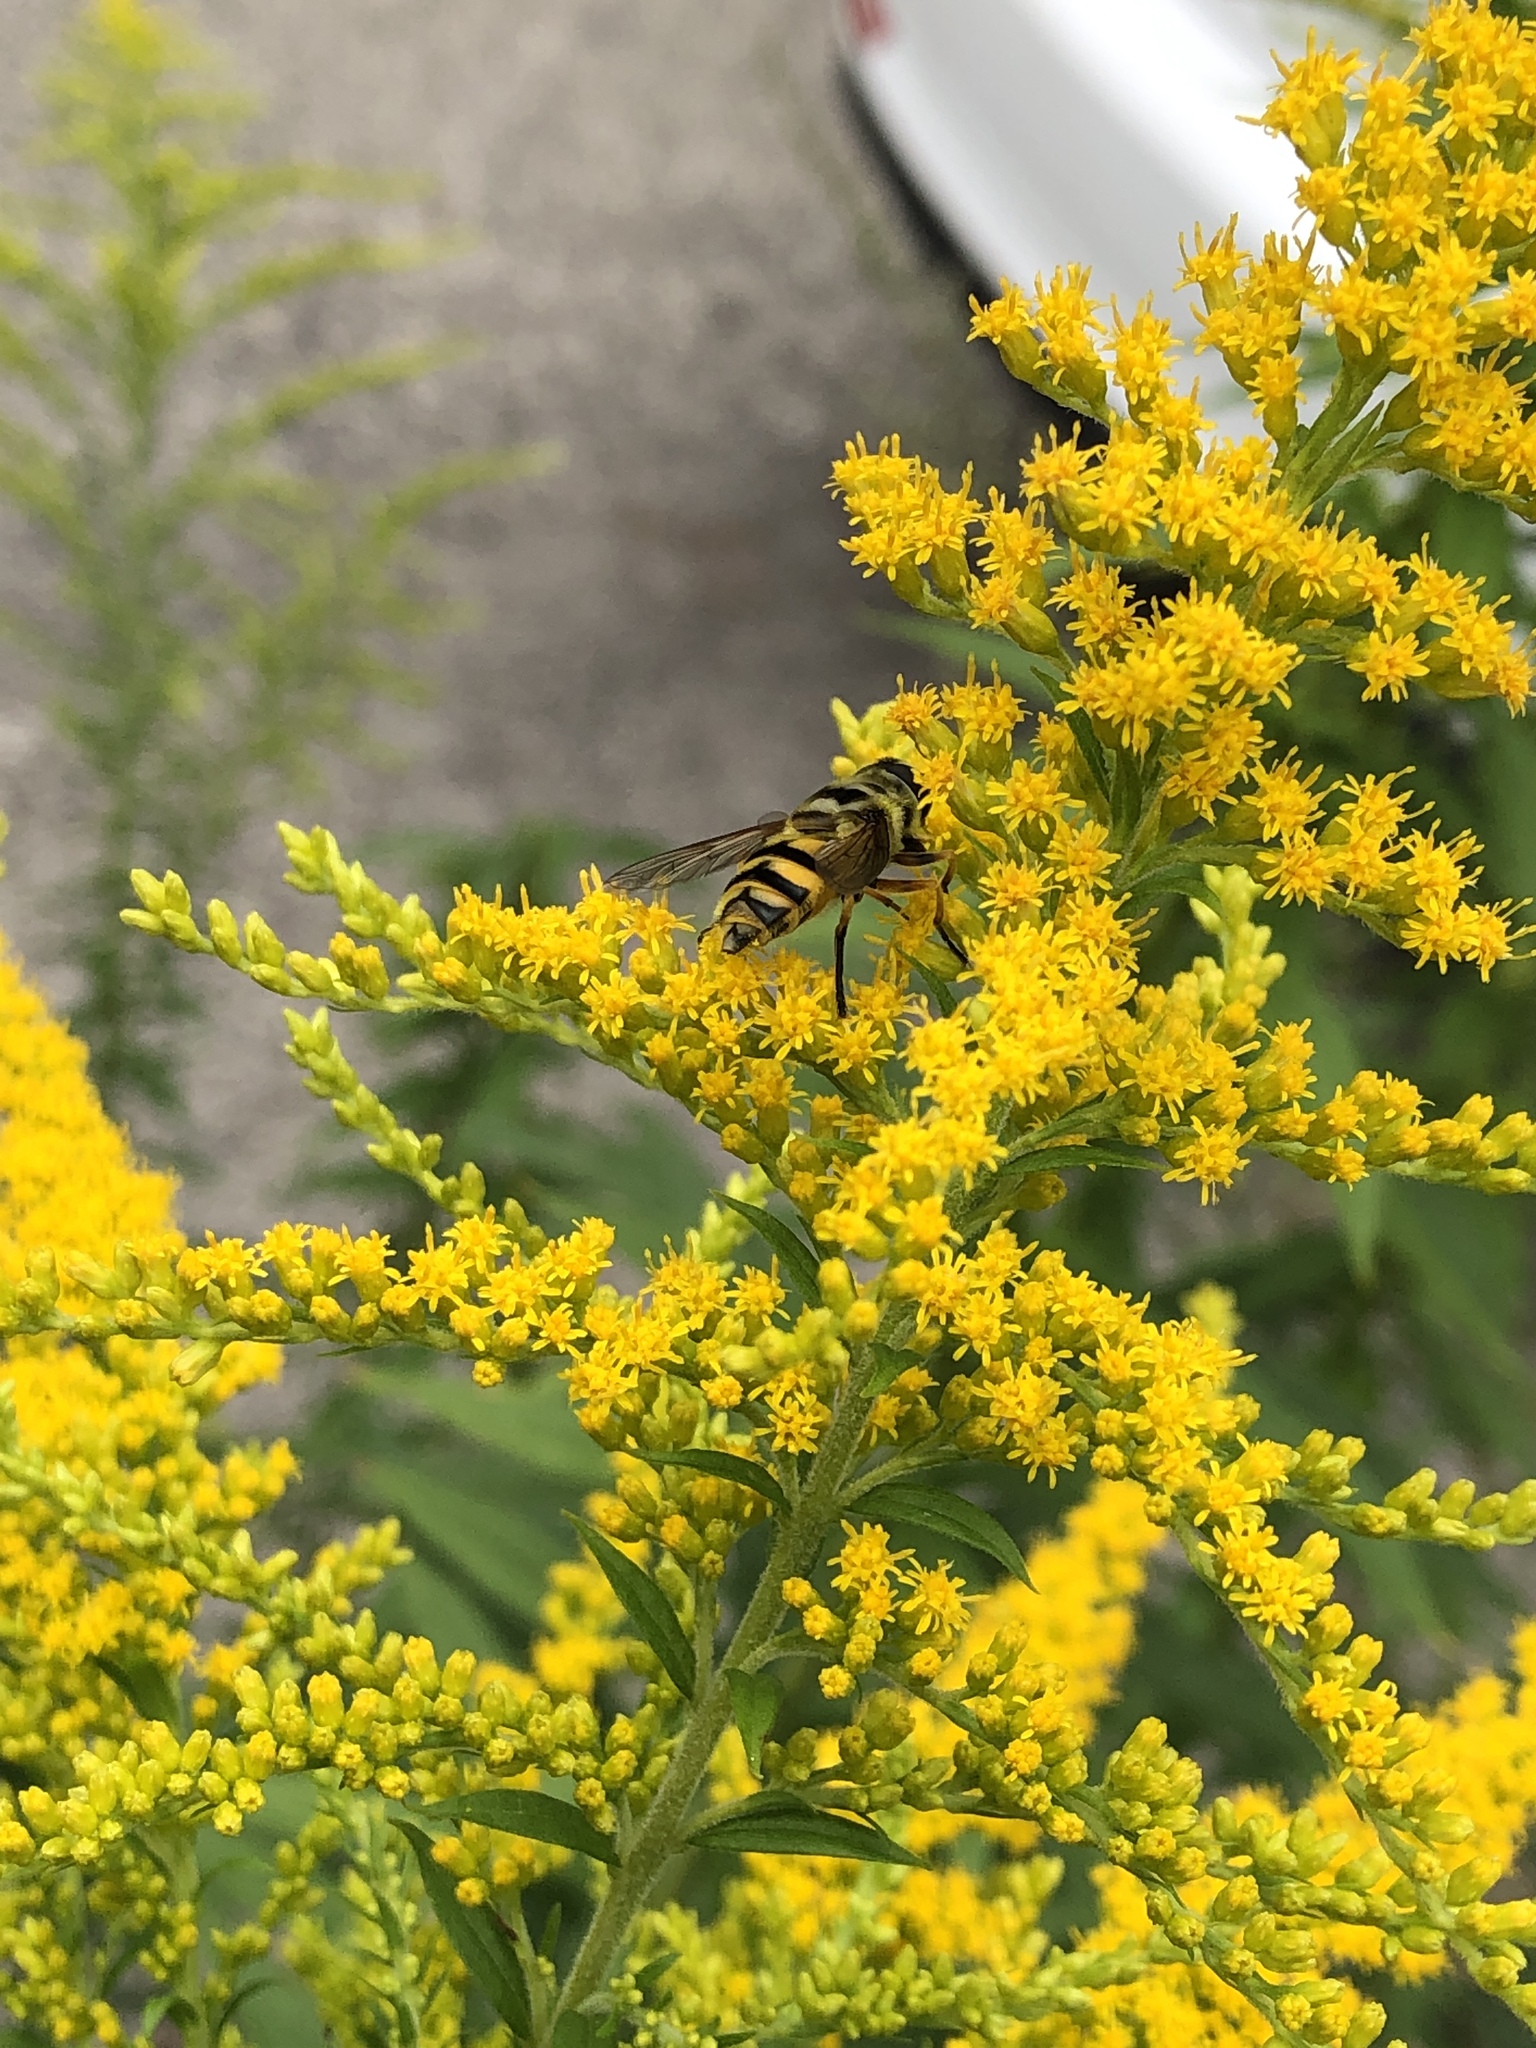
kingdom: Animalia
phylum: Arthropoda
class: Insecta
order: Diptera
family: Syrphidae
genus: Myathropa
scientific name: Myathropa florea
